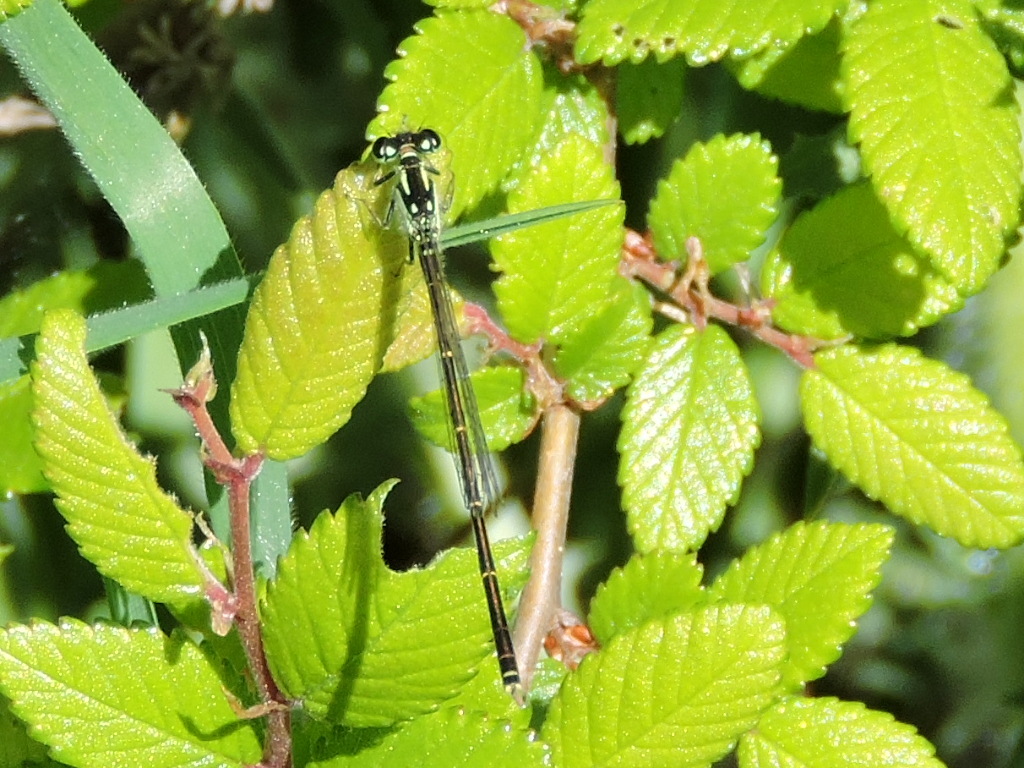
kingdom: Animalia
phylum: Arthropoda
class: Insecta
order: Odonata
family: Coenagrionidae
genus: Ischnura
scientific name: Ischnura posita
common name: Fragile forktail
